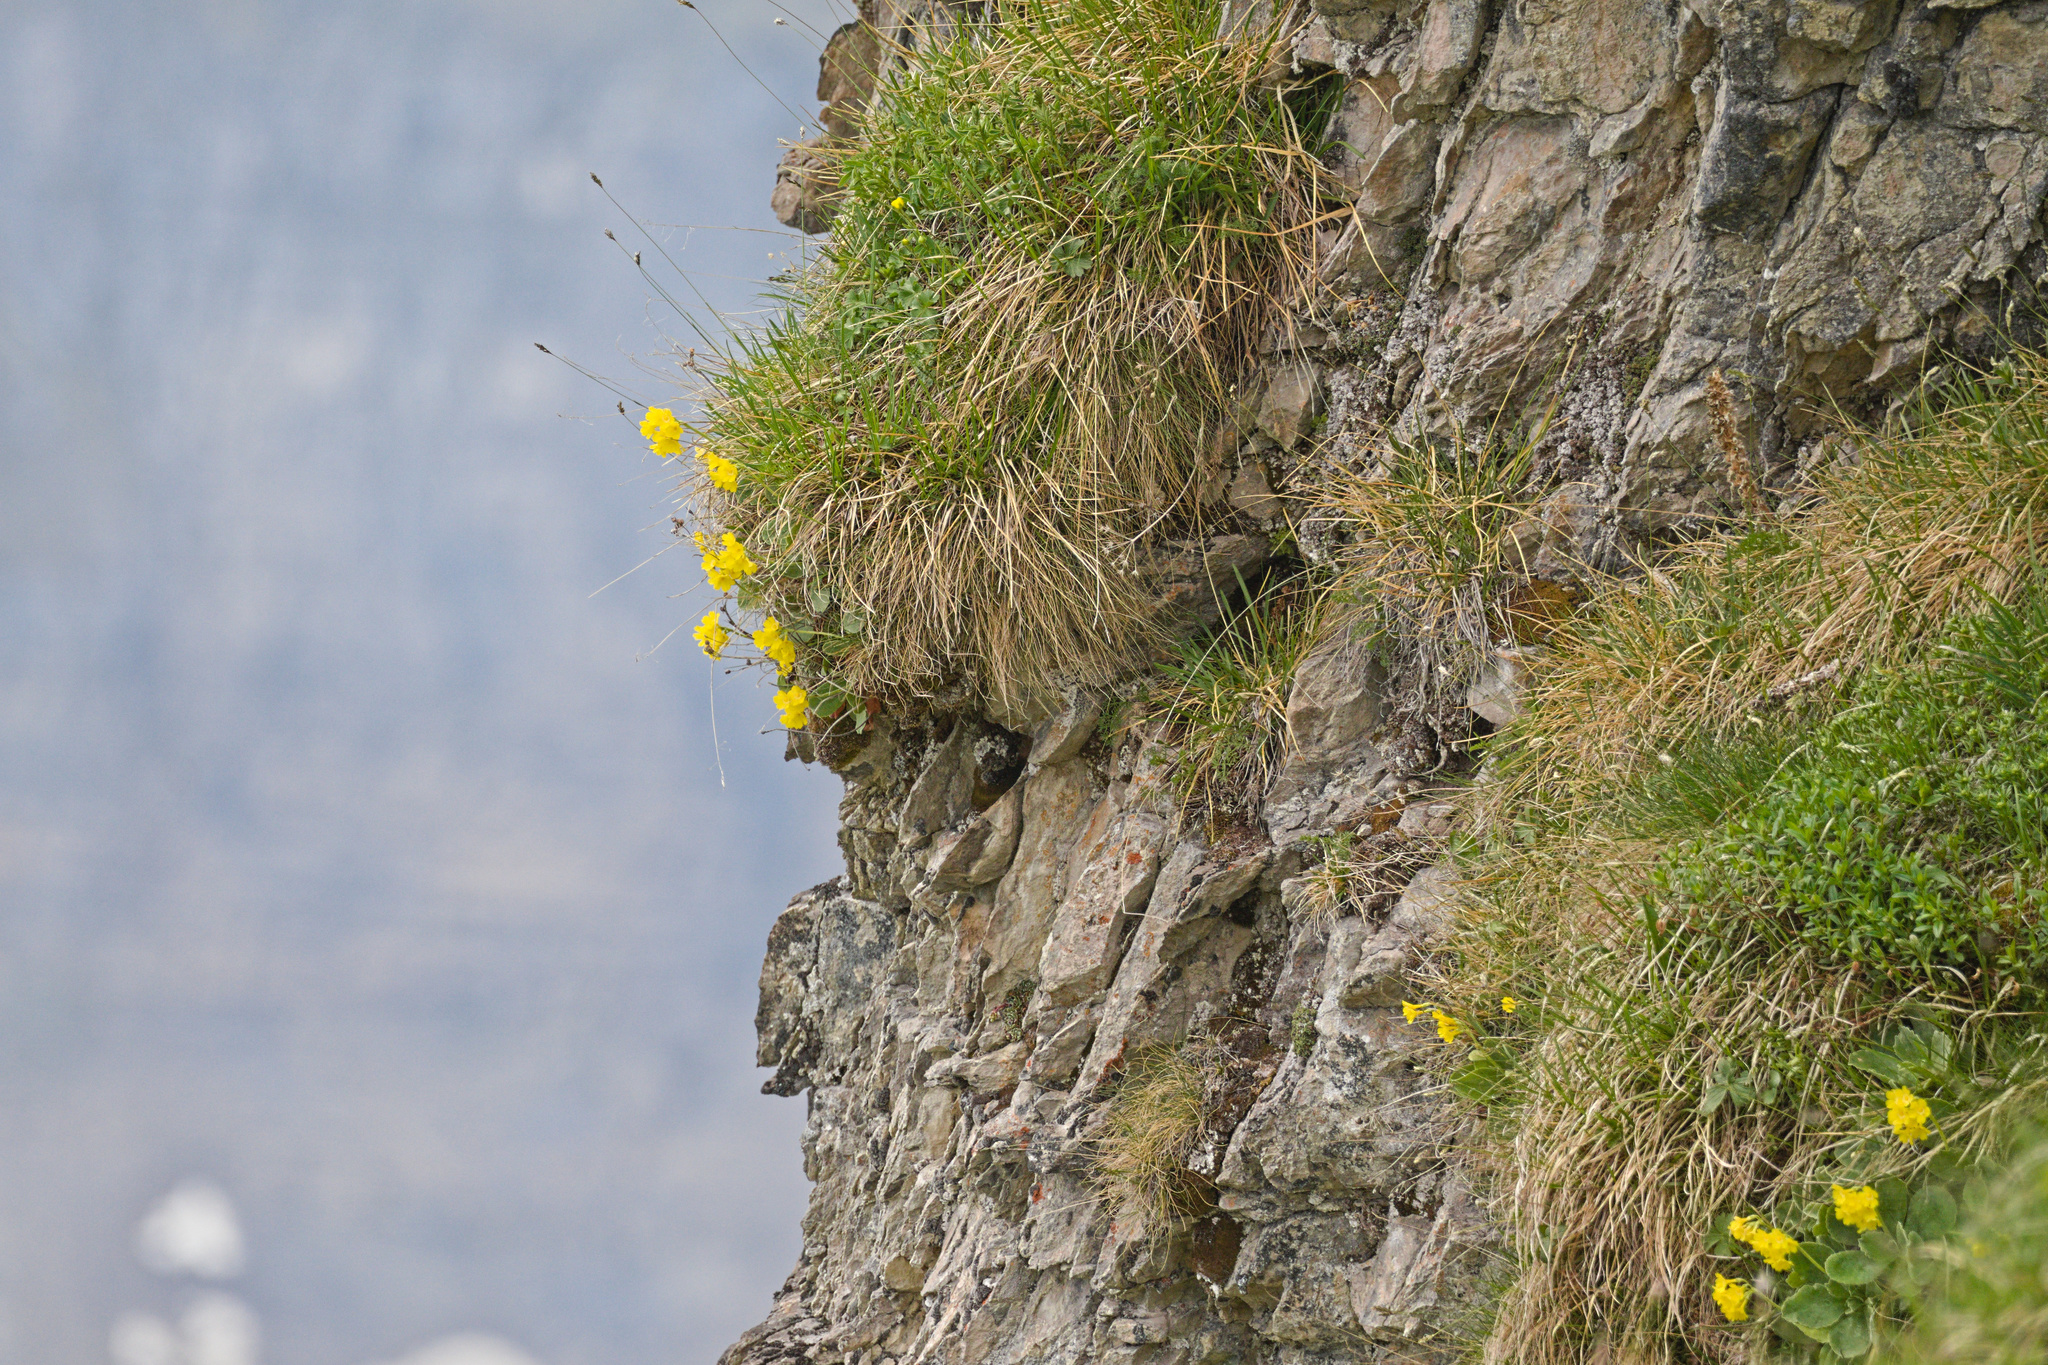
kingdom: Plantae
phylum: Tracheophyta
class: Magnoliopsida
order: Ericales
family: Primulaceae
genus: Primula
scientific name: Primula auricula
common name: Auricula
